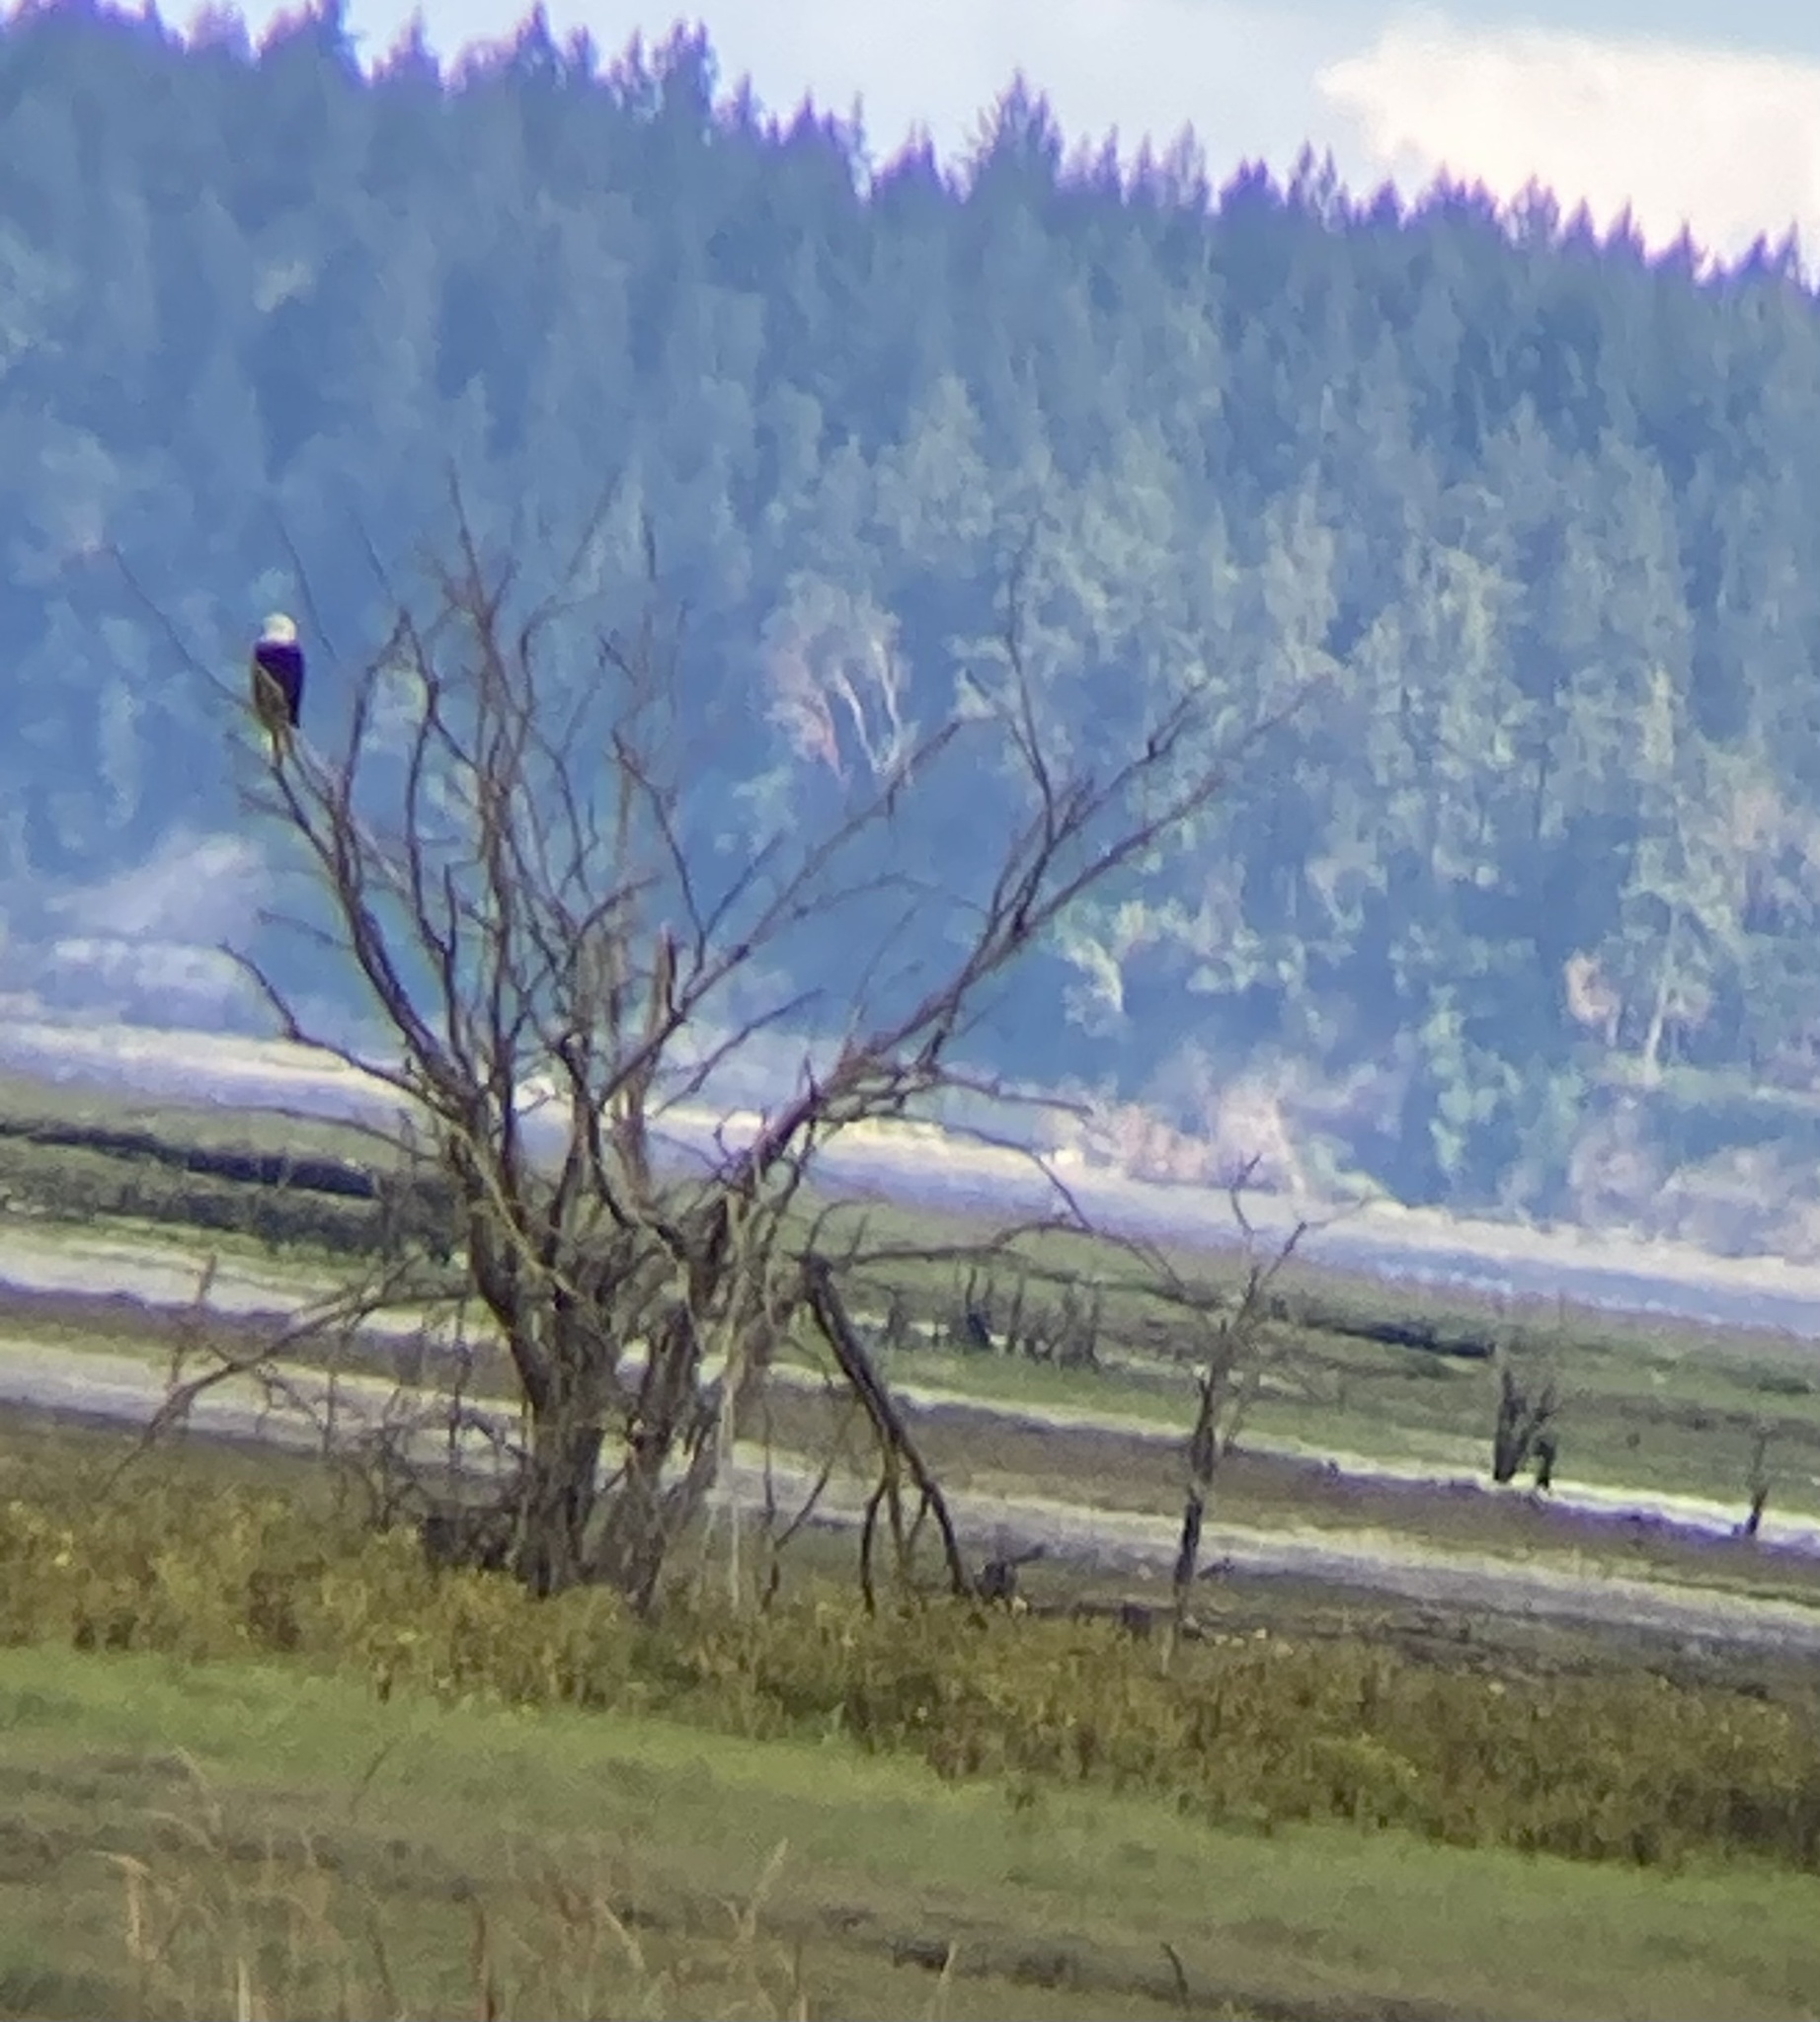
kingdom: Animalia
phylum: Chordata
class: Aves
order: Accipitriformes
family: Accipitridae
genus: Haliaeetus
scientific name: Haliaeetus leucocephalus
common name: Bald eagle
